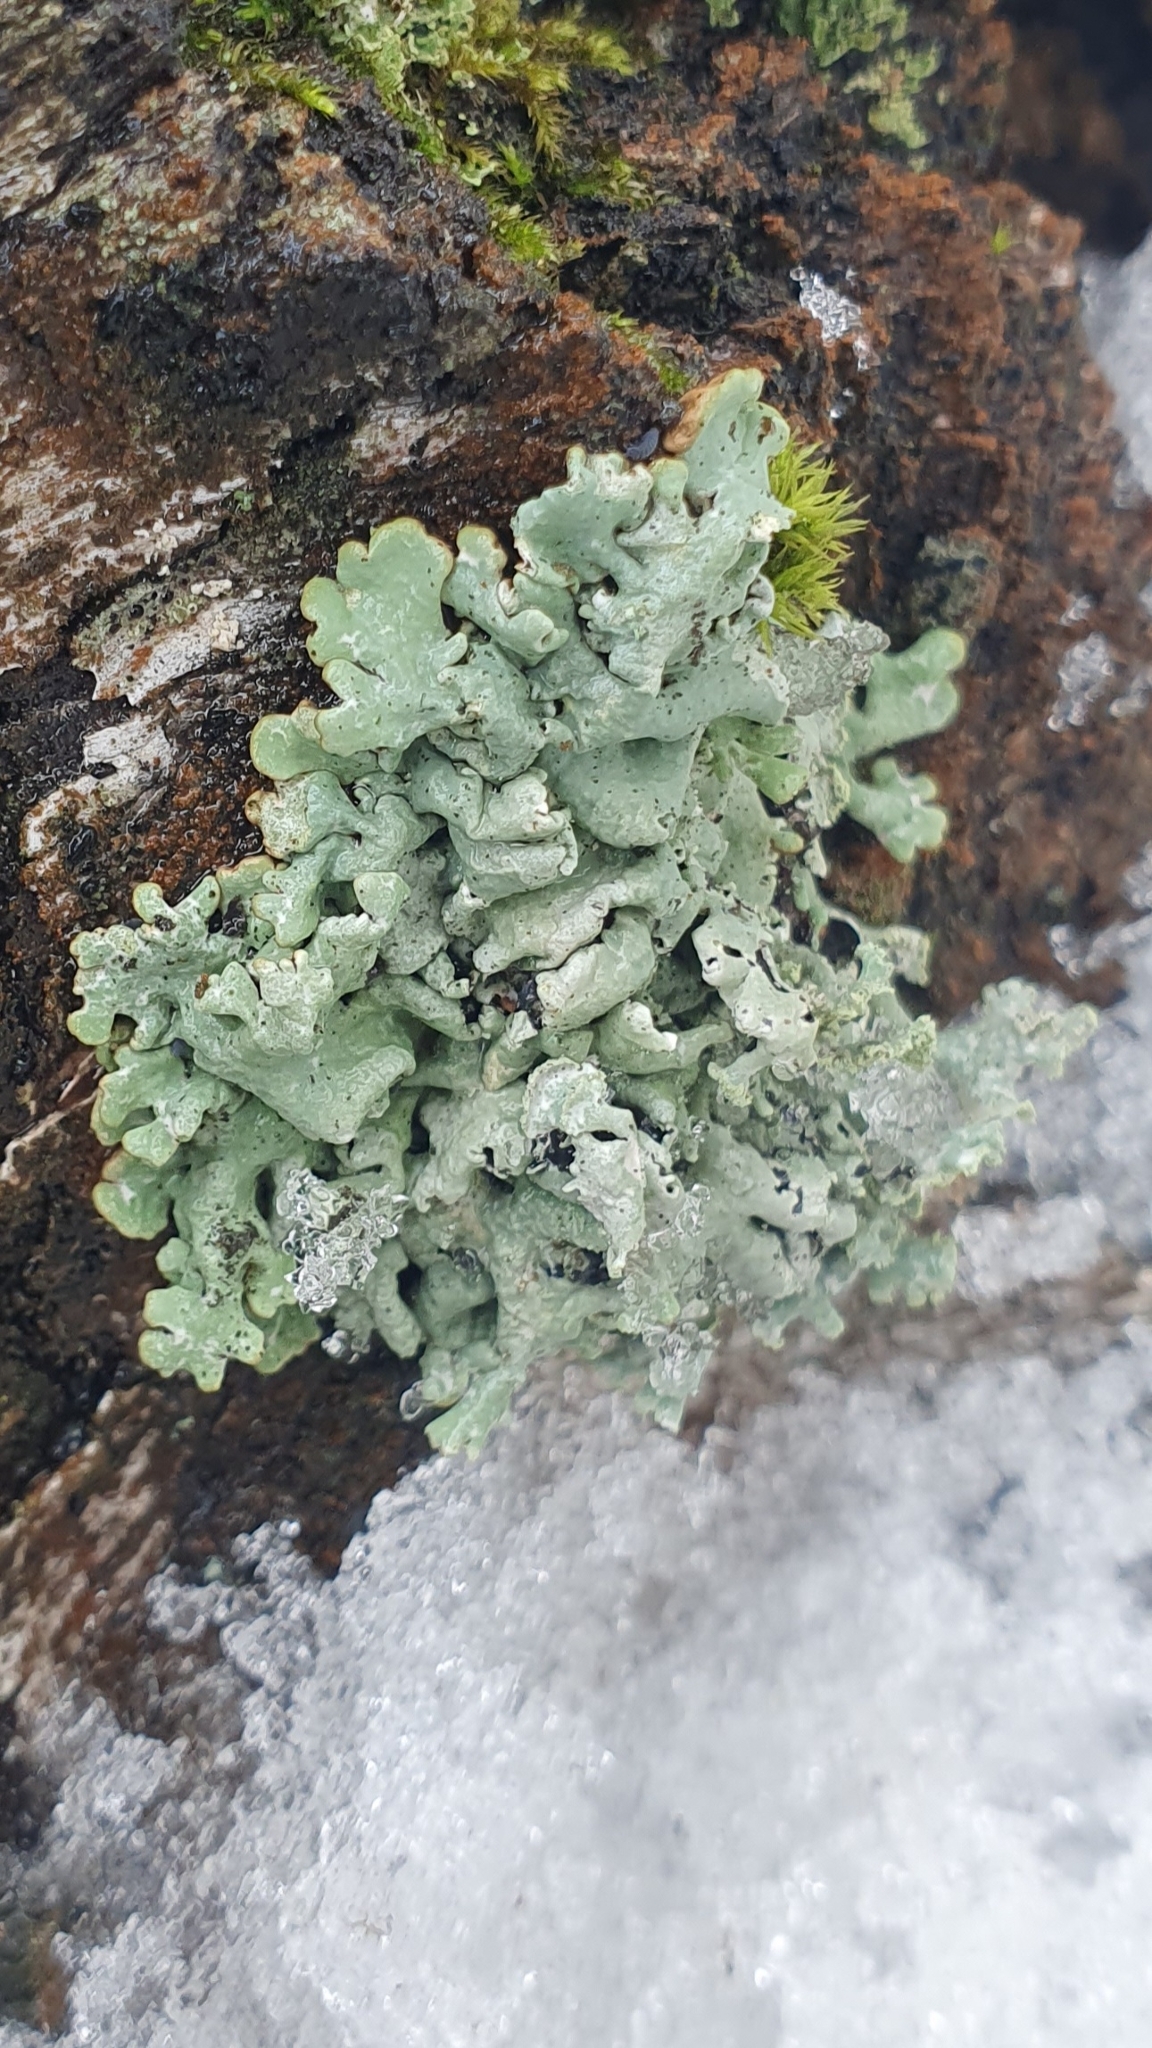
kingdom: Fungi
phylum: Ascomycota
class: Lecanoromycetes
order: Lecanorales
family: Parmeliaceae
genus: Hypogymnia
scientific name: Hypogymnia physodes
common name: Dark crottle
